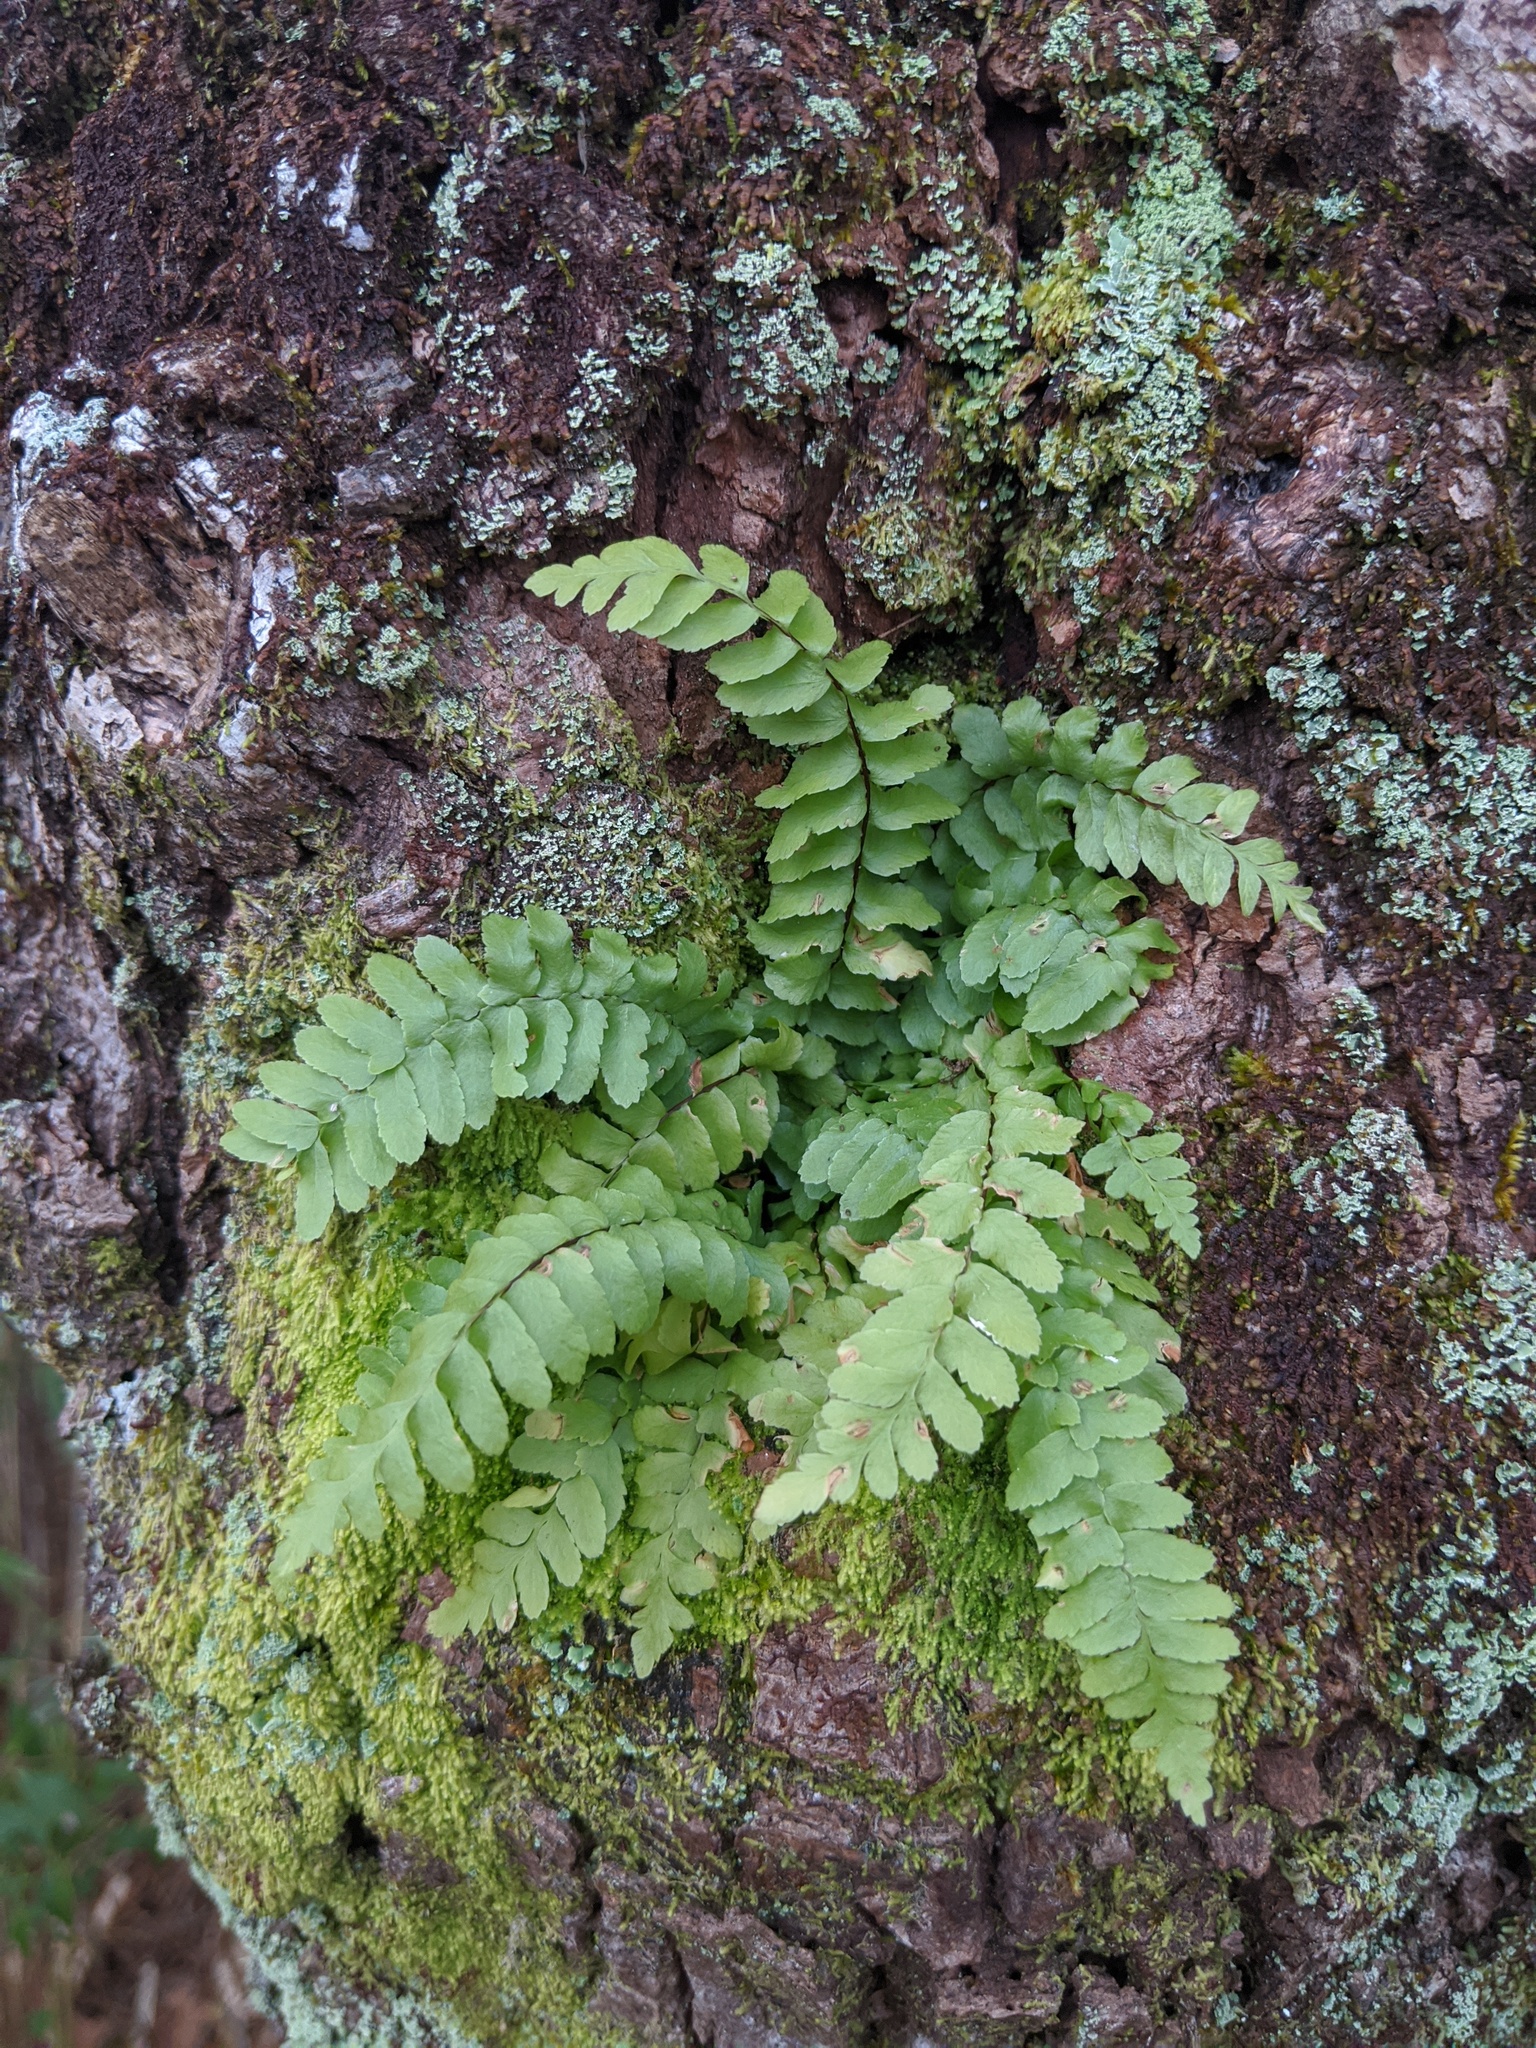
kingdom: Plantae
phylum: Tracheophyta
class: Polypodiopsida
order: Polypodiales
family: Aspleniaceae
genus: Asplenium
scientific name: Asplenium platyneuron
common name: Ebony spleenwort
